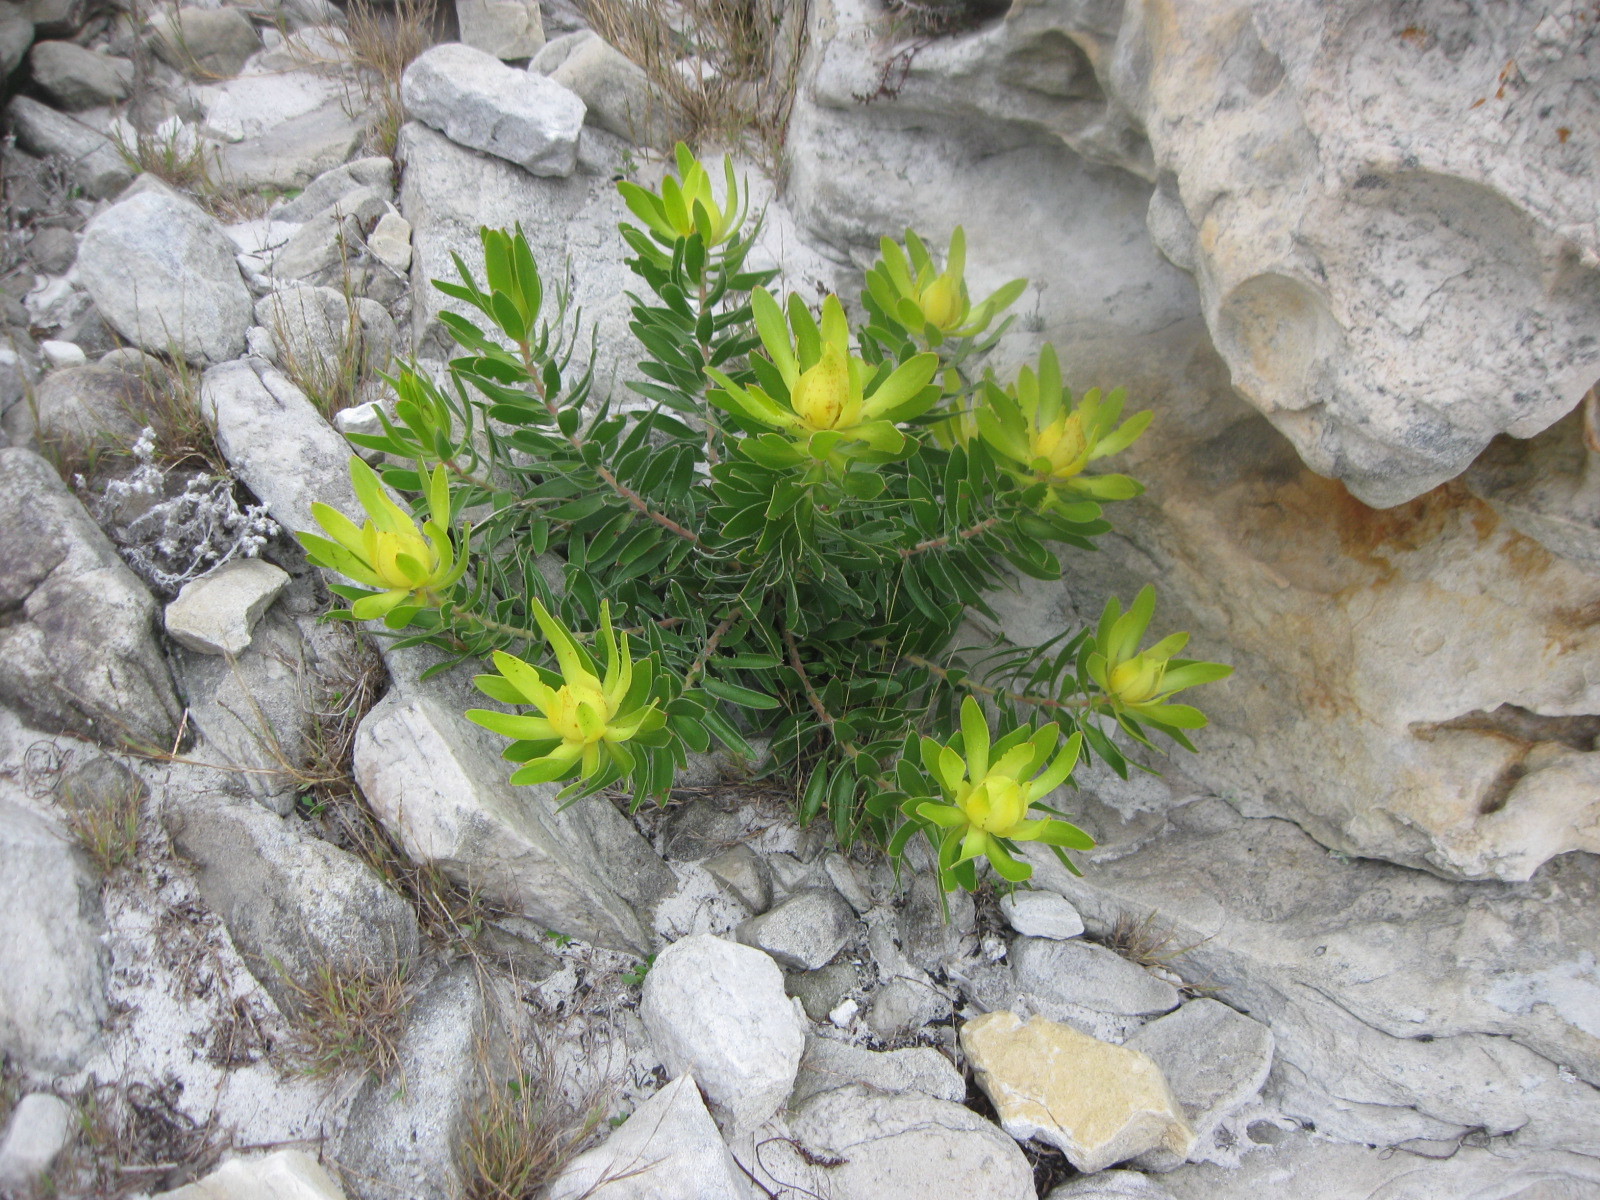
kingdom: Plantae
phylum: Tracheophyta
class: Magnoliopsida
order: Proteales
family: Proteaceae
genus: Leucadendron
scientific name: Leucadendron laureolum
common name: Golden sunshinebush
